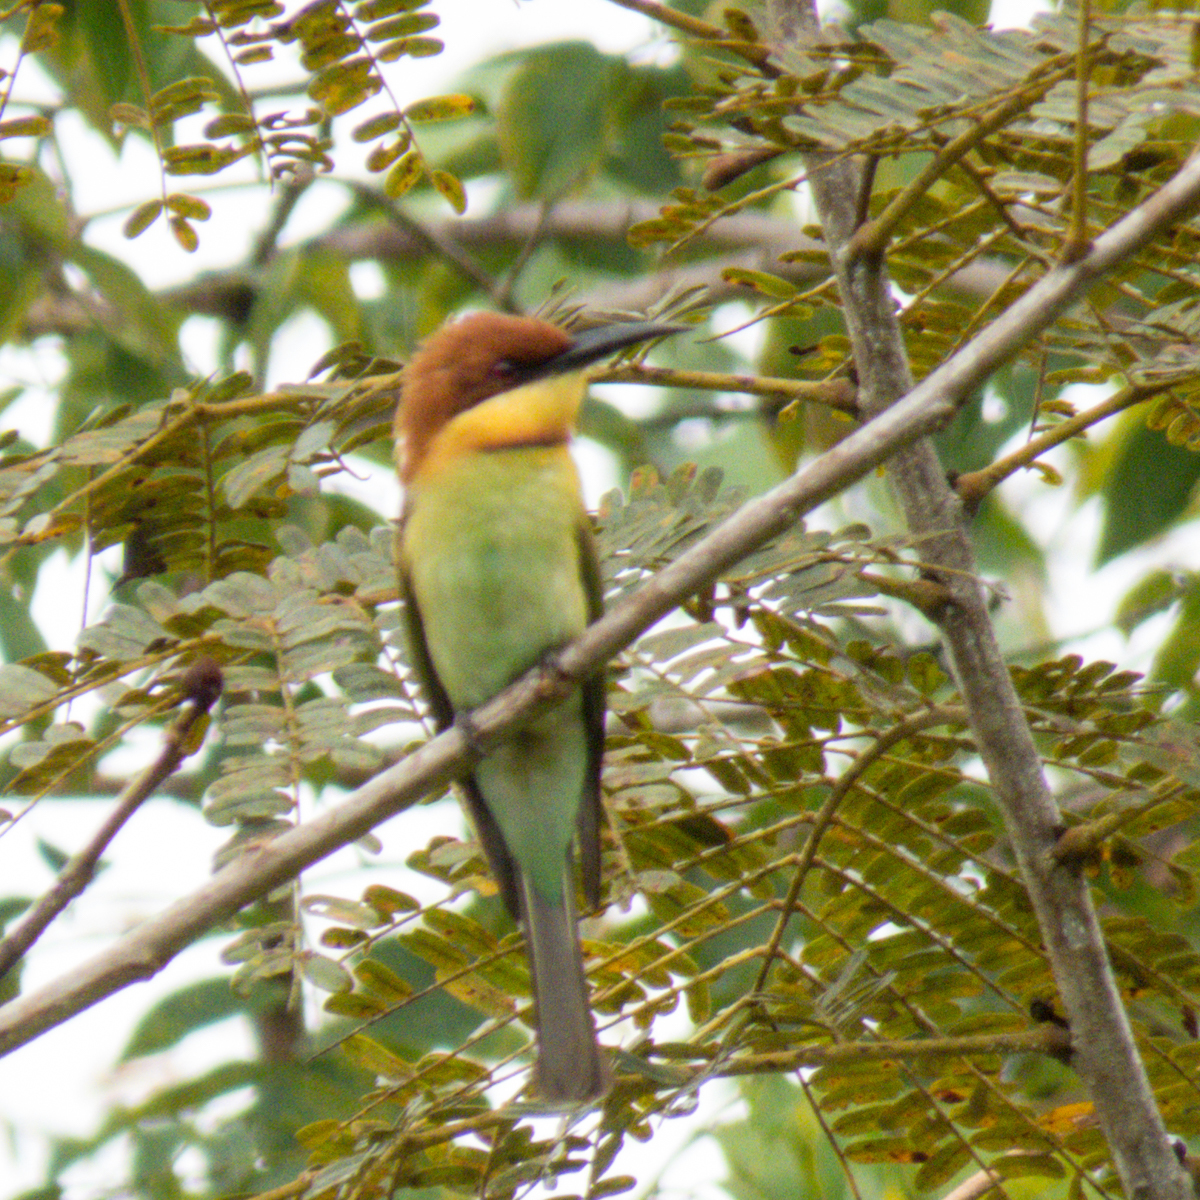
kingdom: Animalia
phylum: Chordata
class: Aves
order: Coraciiformes
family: Meropidae
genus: Merops
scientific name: Merops leschenaulti
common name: Chestnut-headed bee-eater
